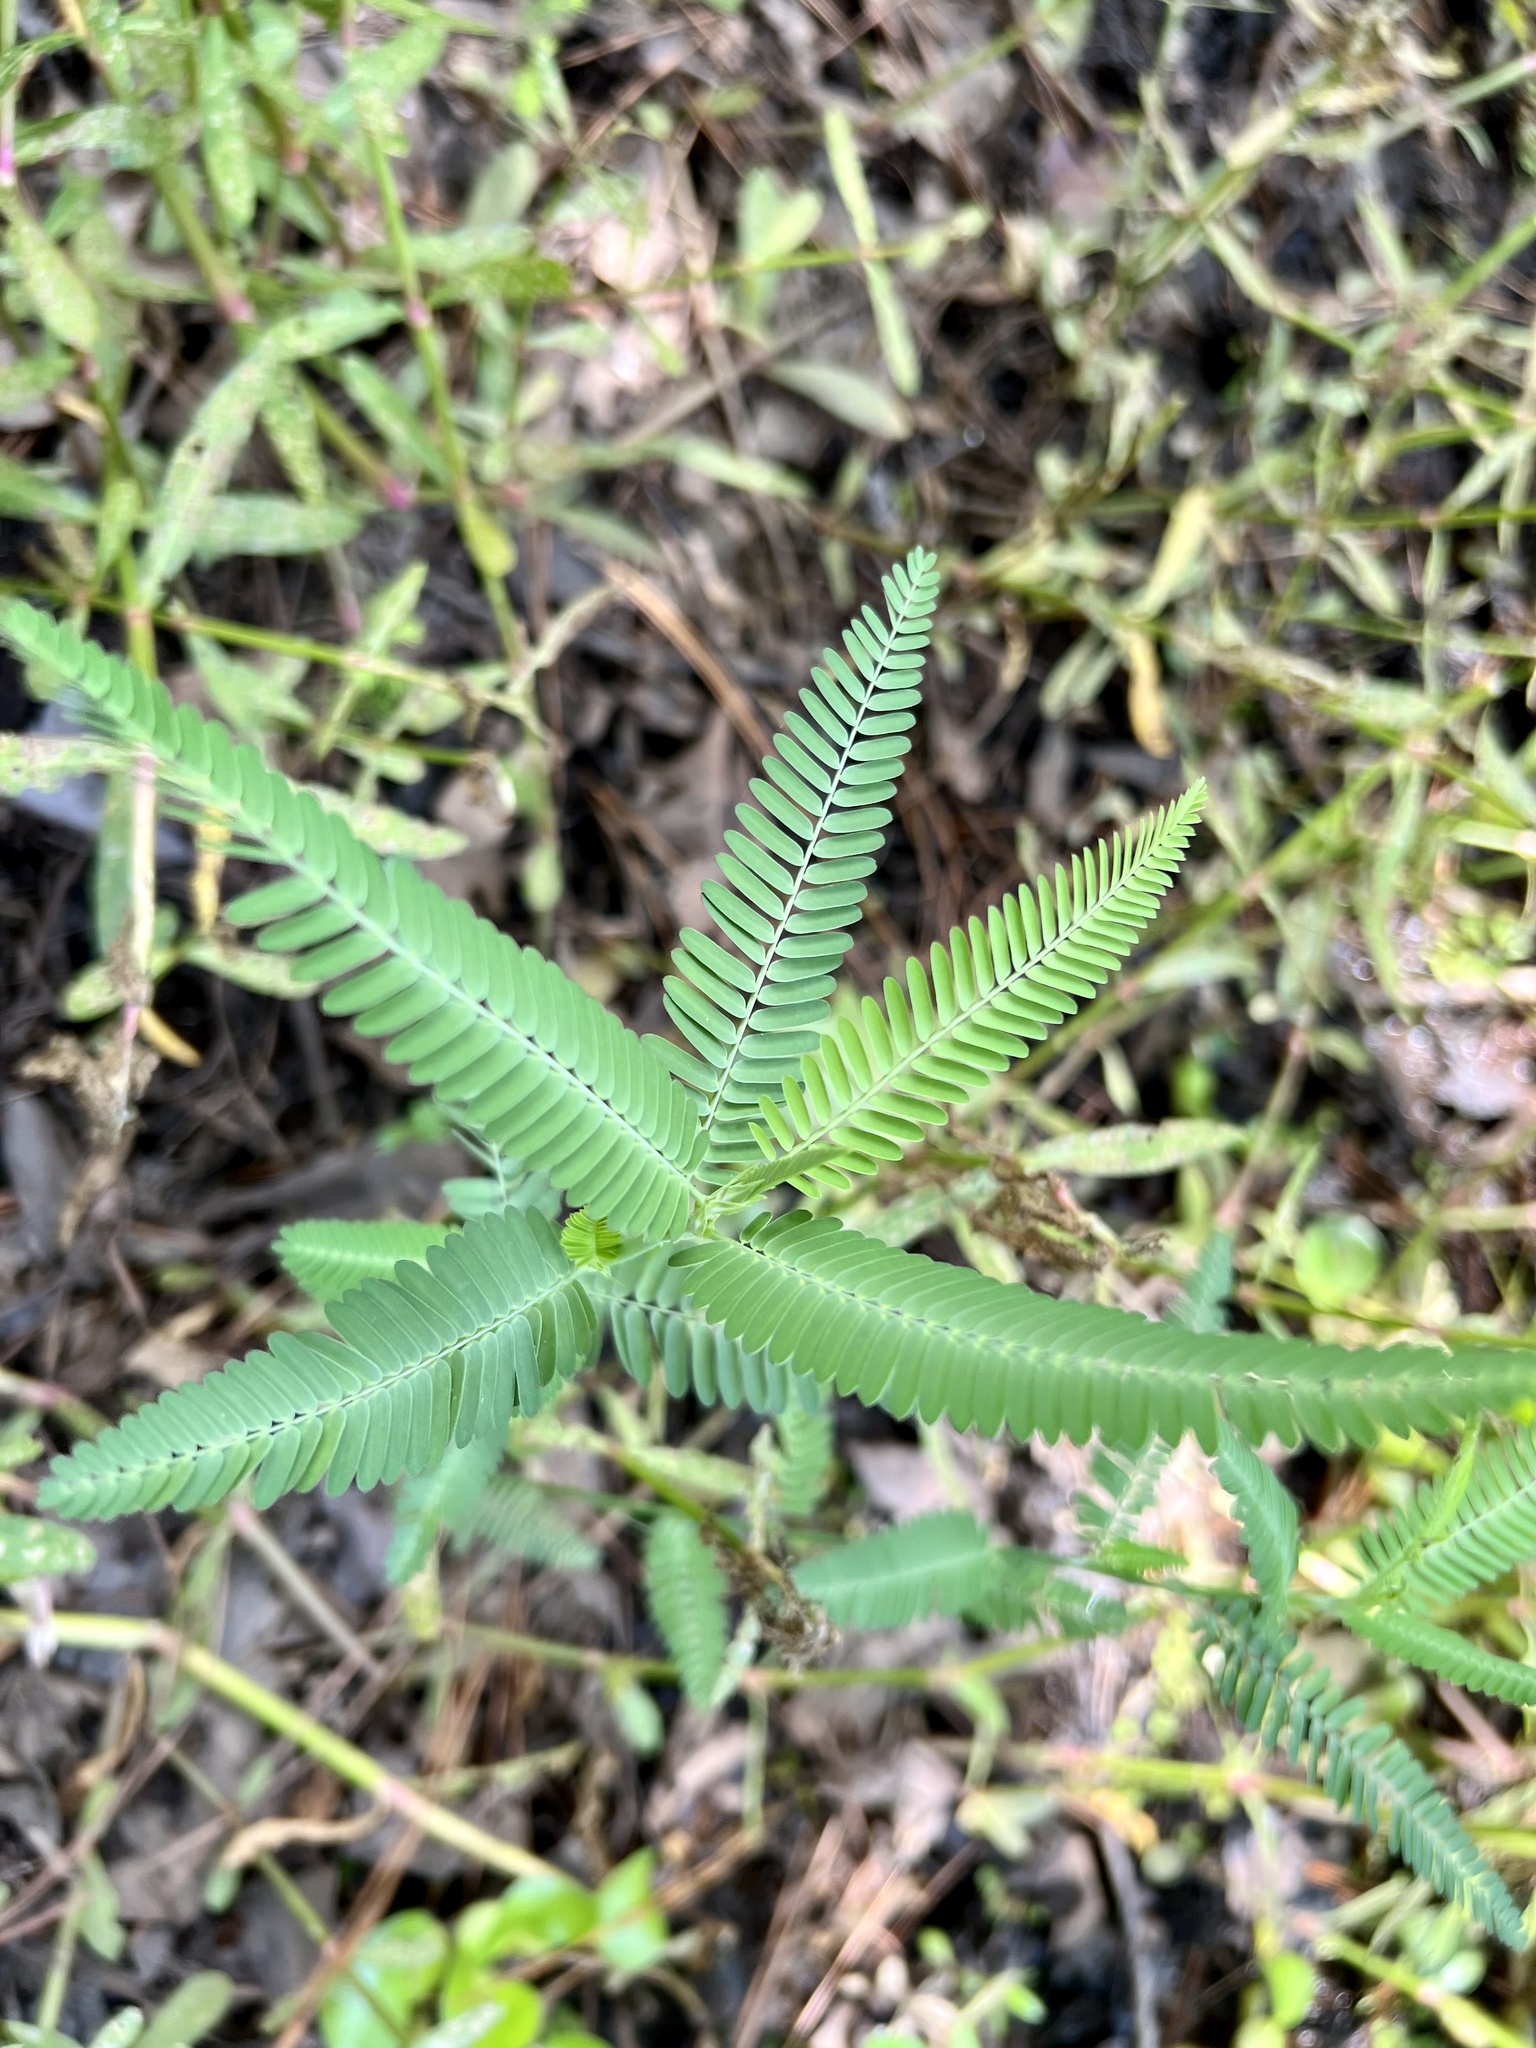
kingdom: Plantae
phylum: Tracheophyta
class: Magnoliopsida
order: Fabales
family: Fabaceae
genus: Sesbania
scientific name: Sesbania herbacea
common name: Bigpod sesbania
